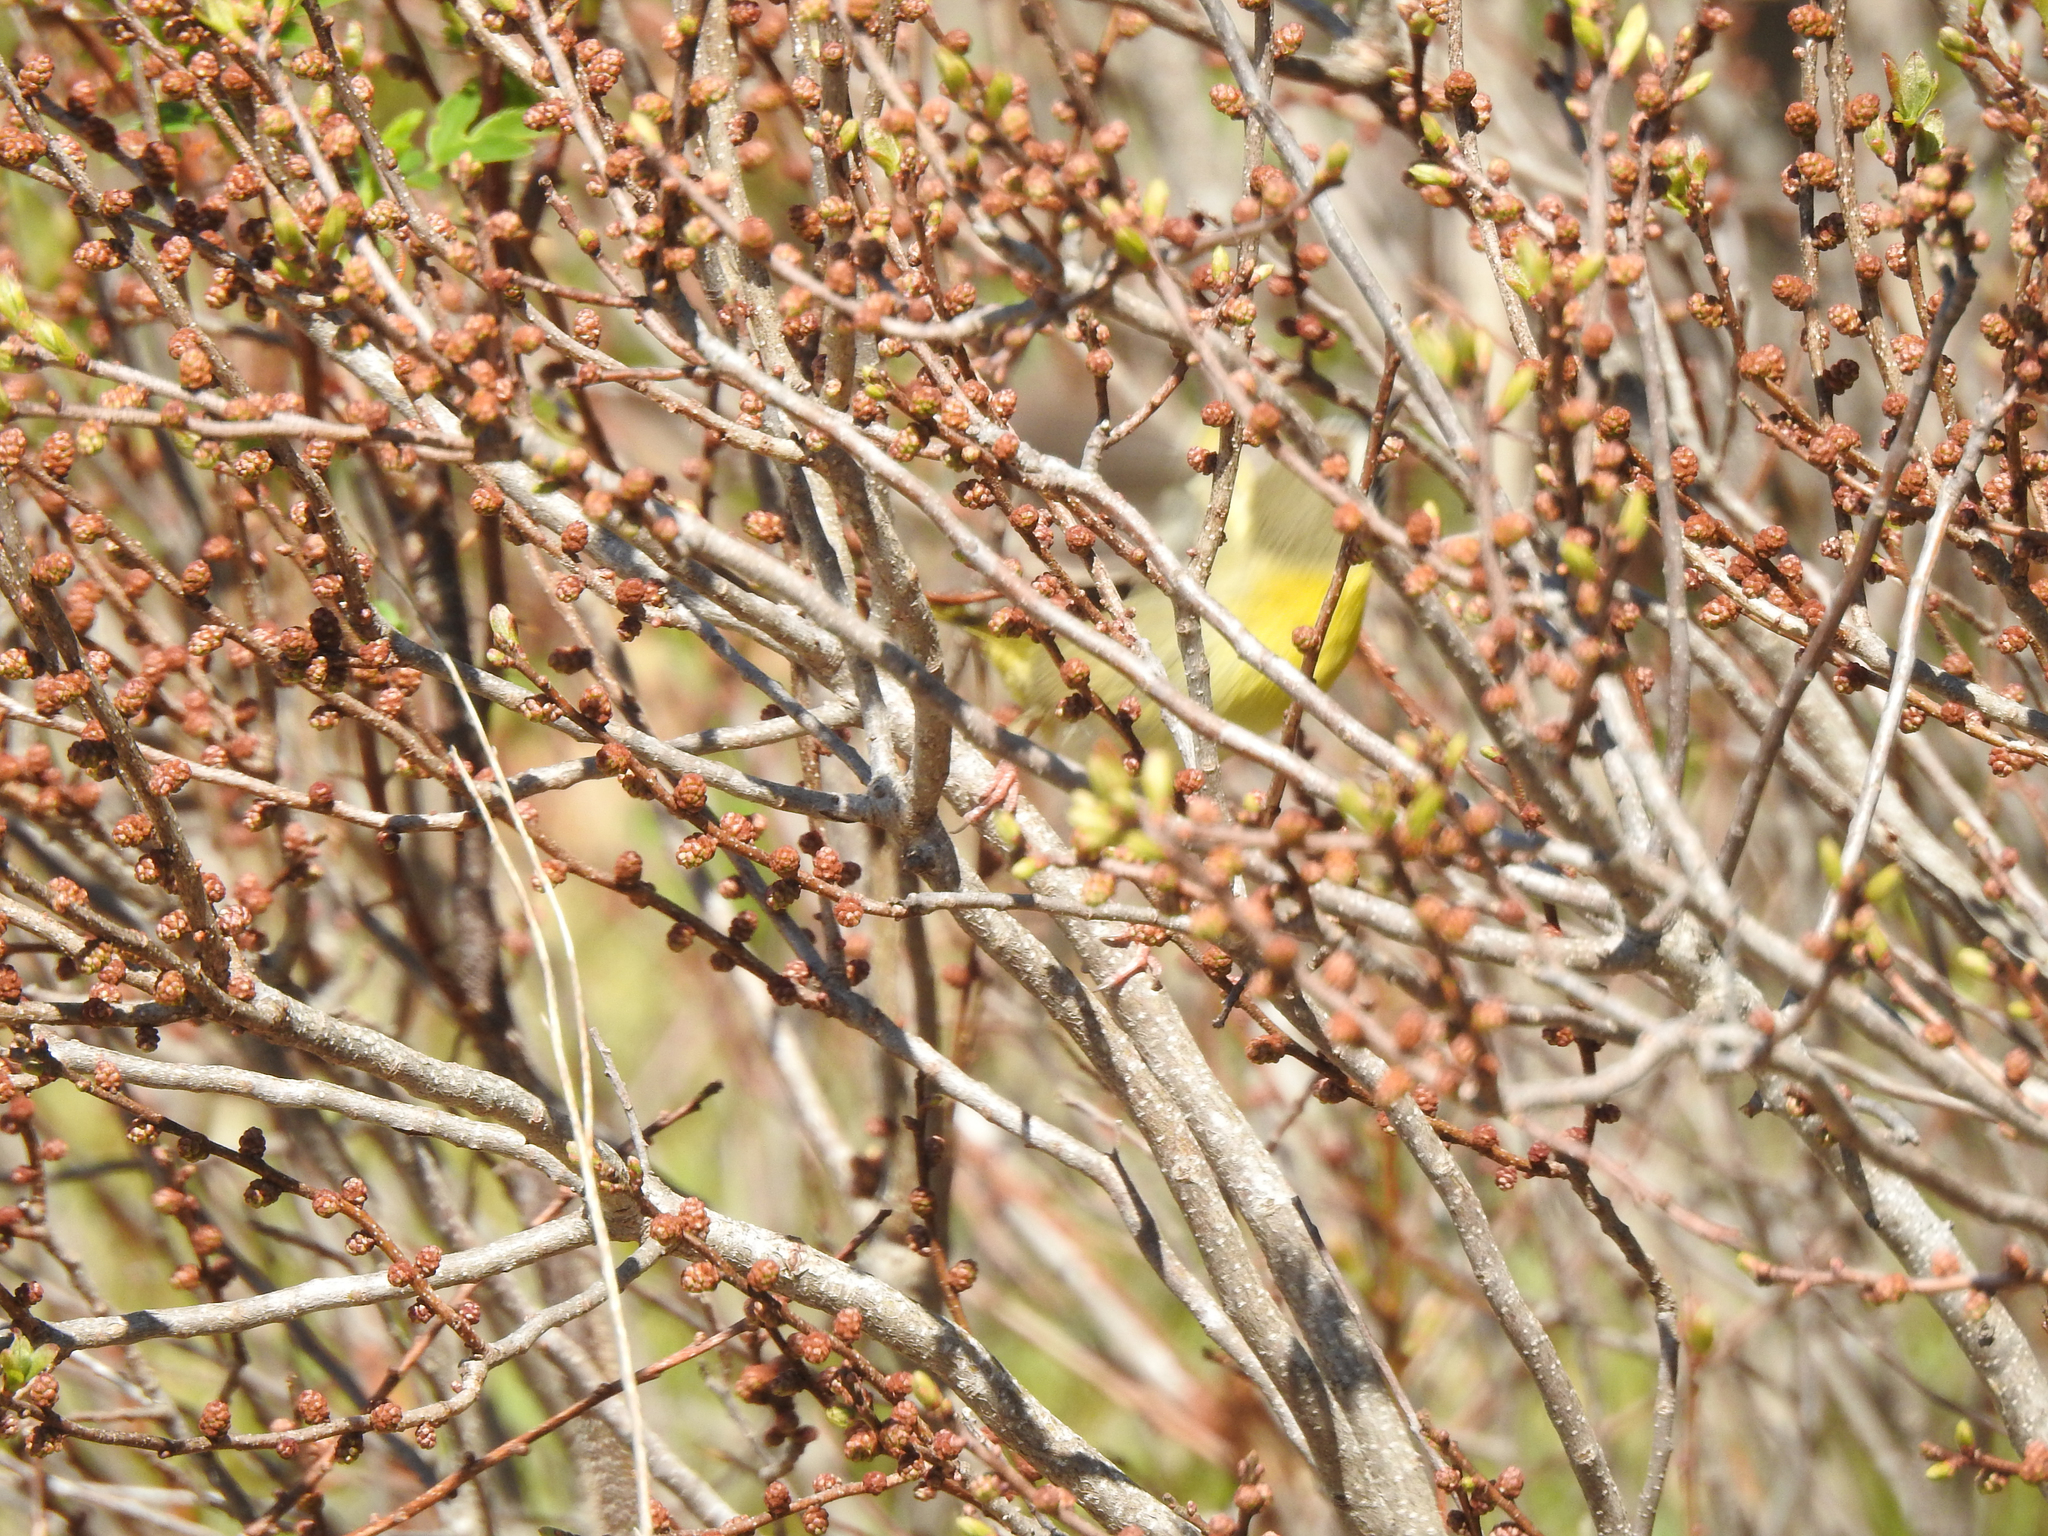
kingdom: Plantae
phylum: Tracheophyta
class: Magnoliopsida
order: Fagales
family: Myricaceae
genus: Morella
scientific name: Morella pensylvanica
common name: Northern bayberry
